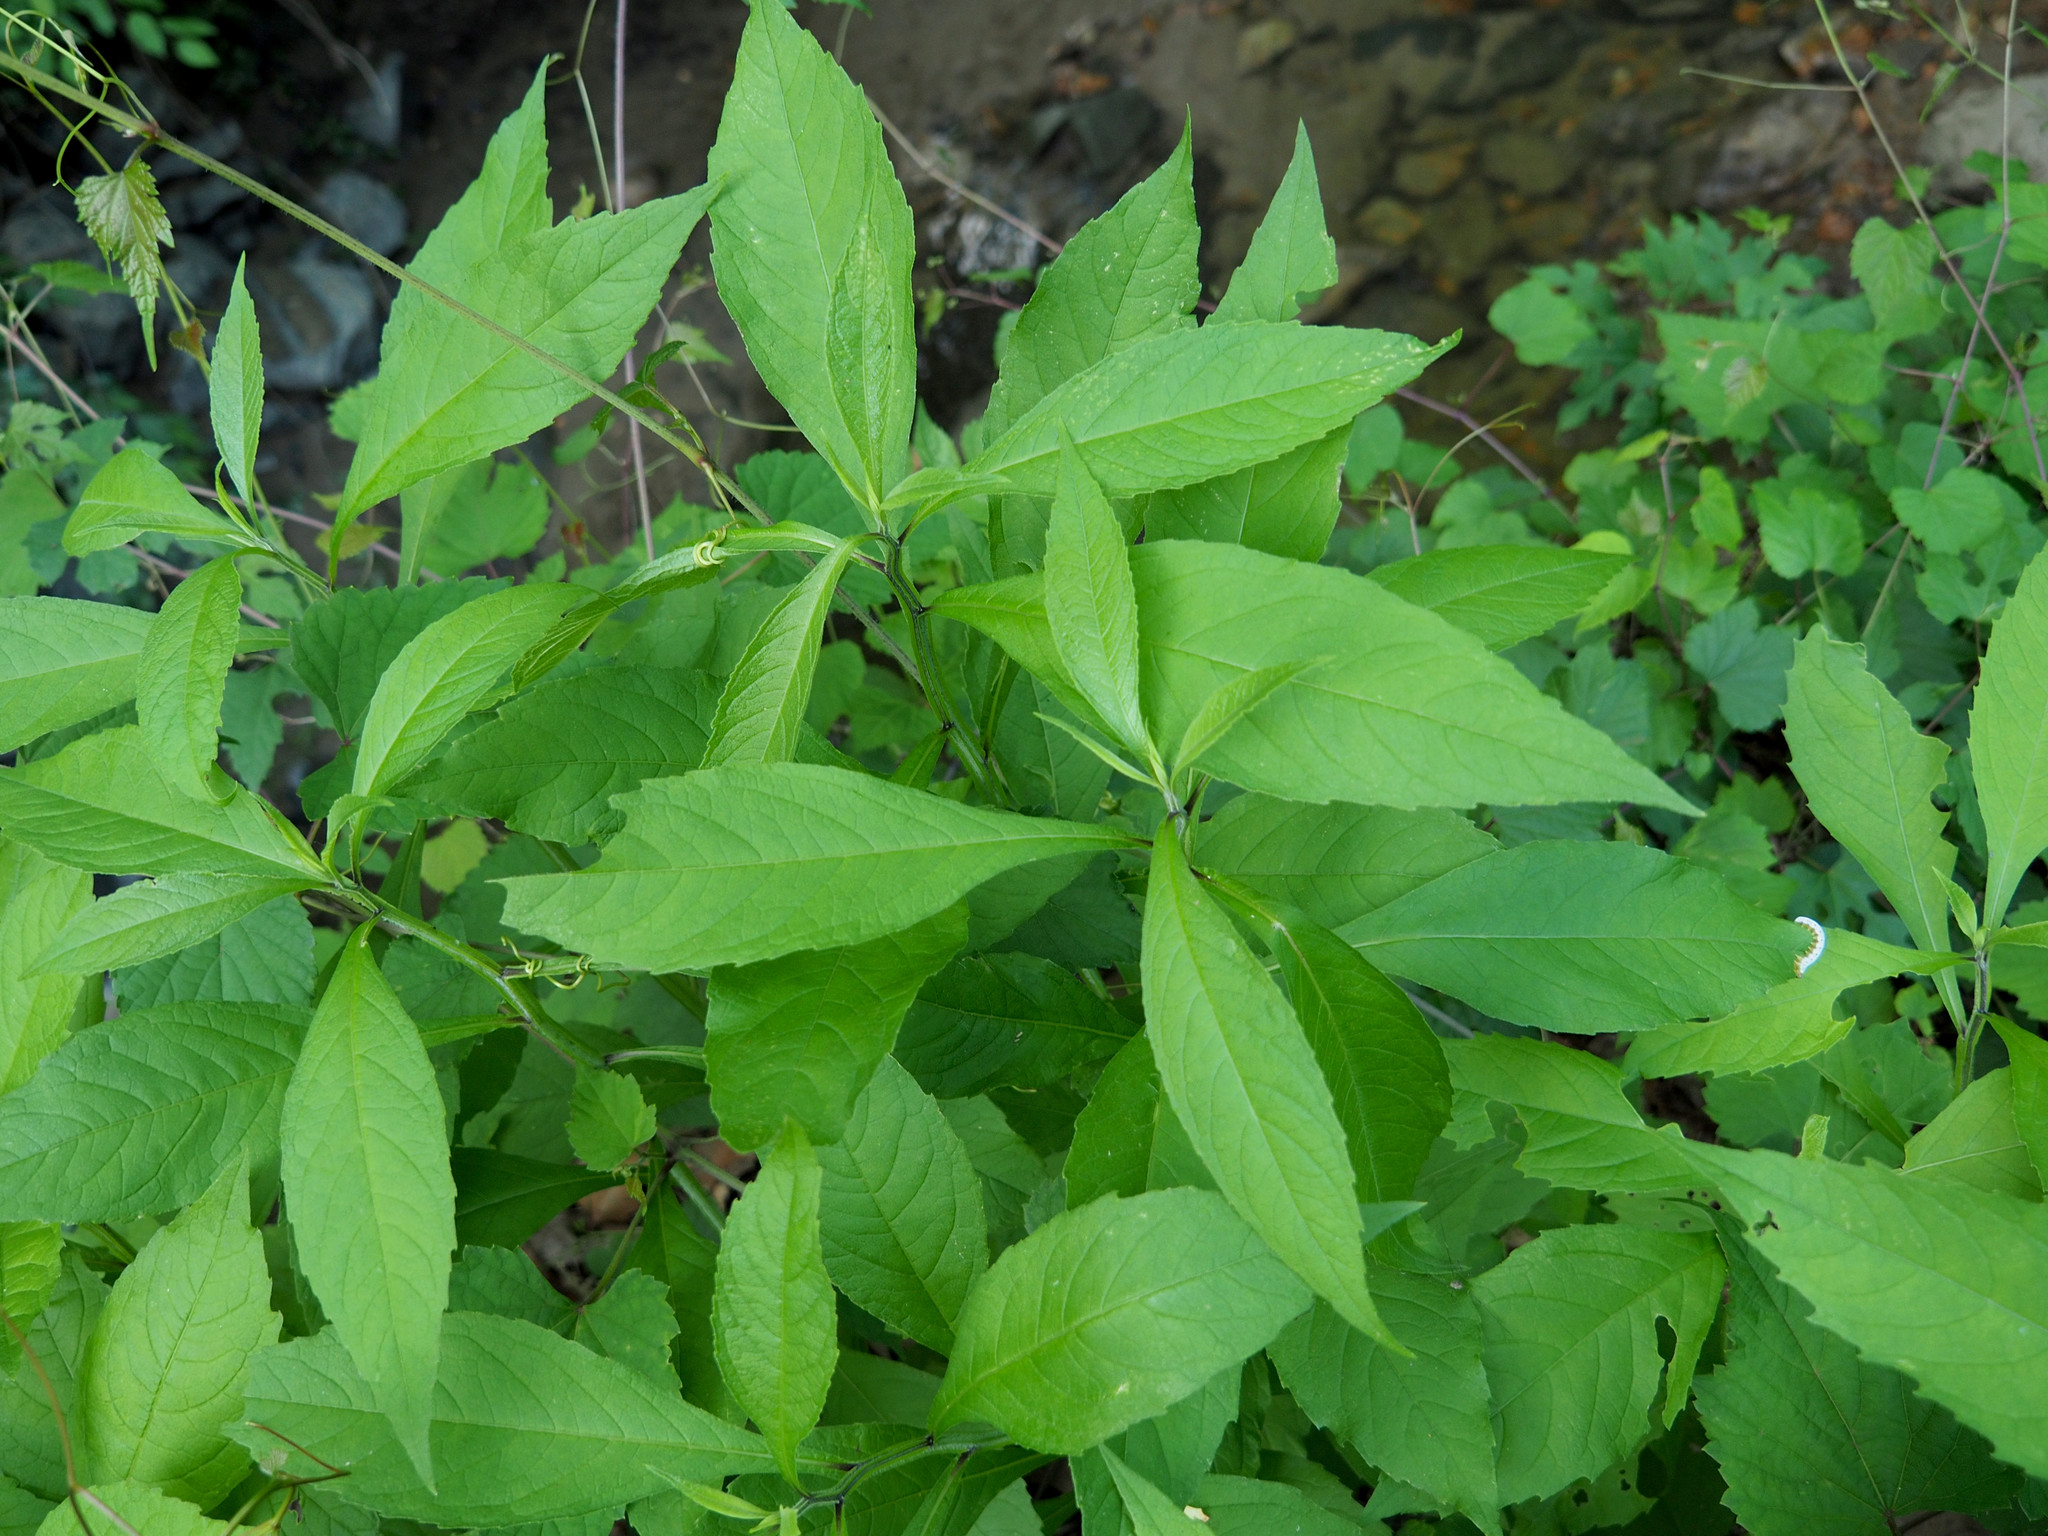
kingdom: Plantae
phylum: Tracheophyta
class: Magnoliopsida
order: Asterales
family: Asteraceae
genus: Verbesina
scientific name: Verbesina alternifolia
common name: Wingstem
